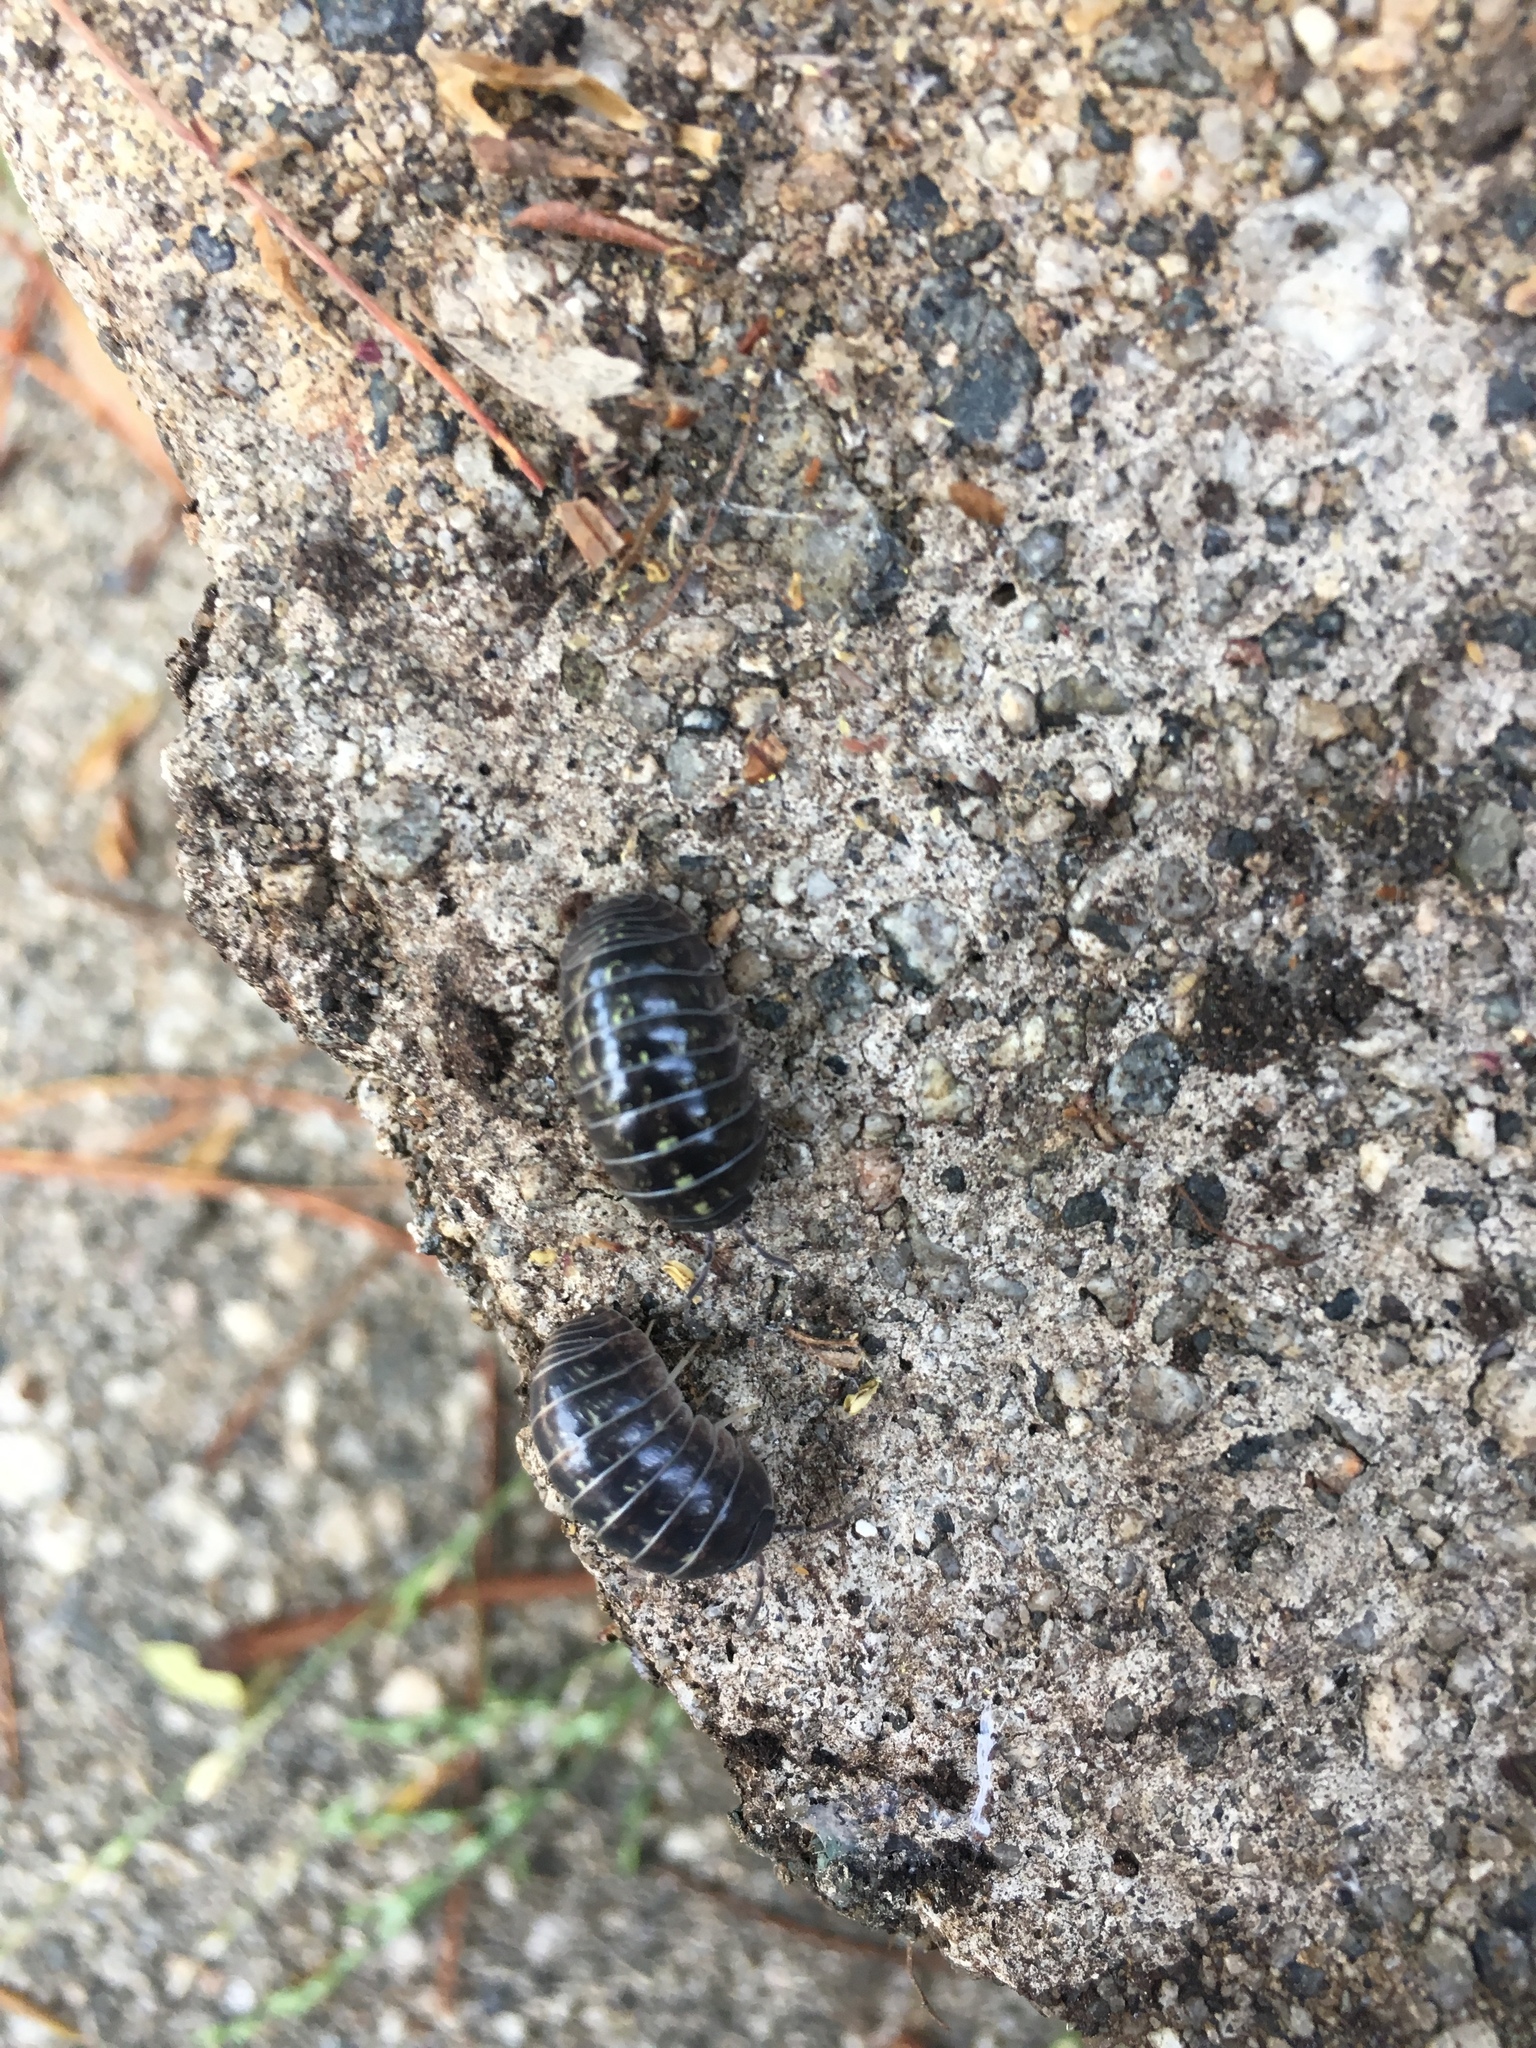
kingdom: Animalia
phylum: Arthropoda
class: Malacostraca
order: Isopoda
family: Armadillidiidae
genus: Armadillidium
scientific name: Armadillidium vulgare
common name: Common pill woodlouse
